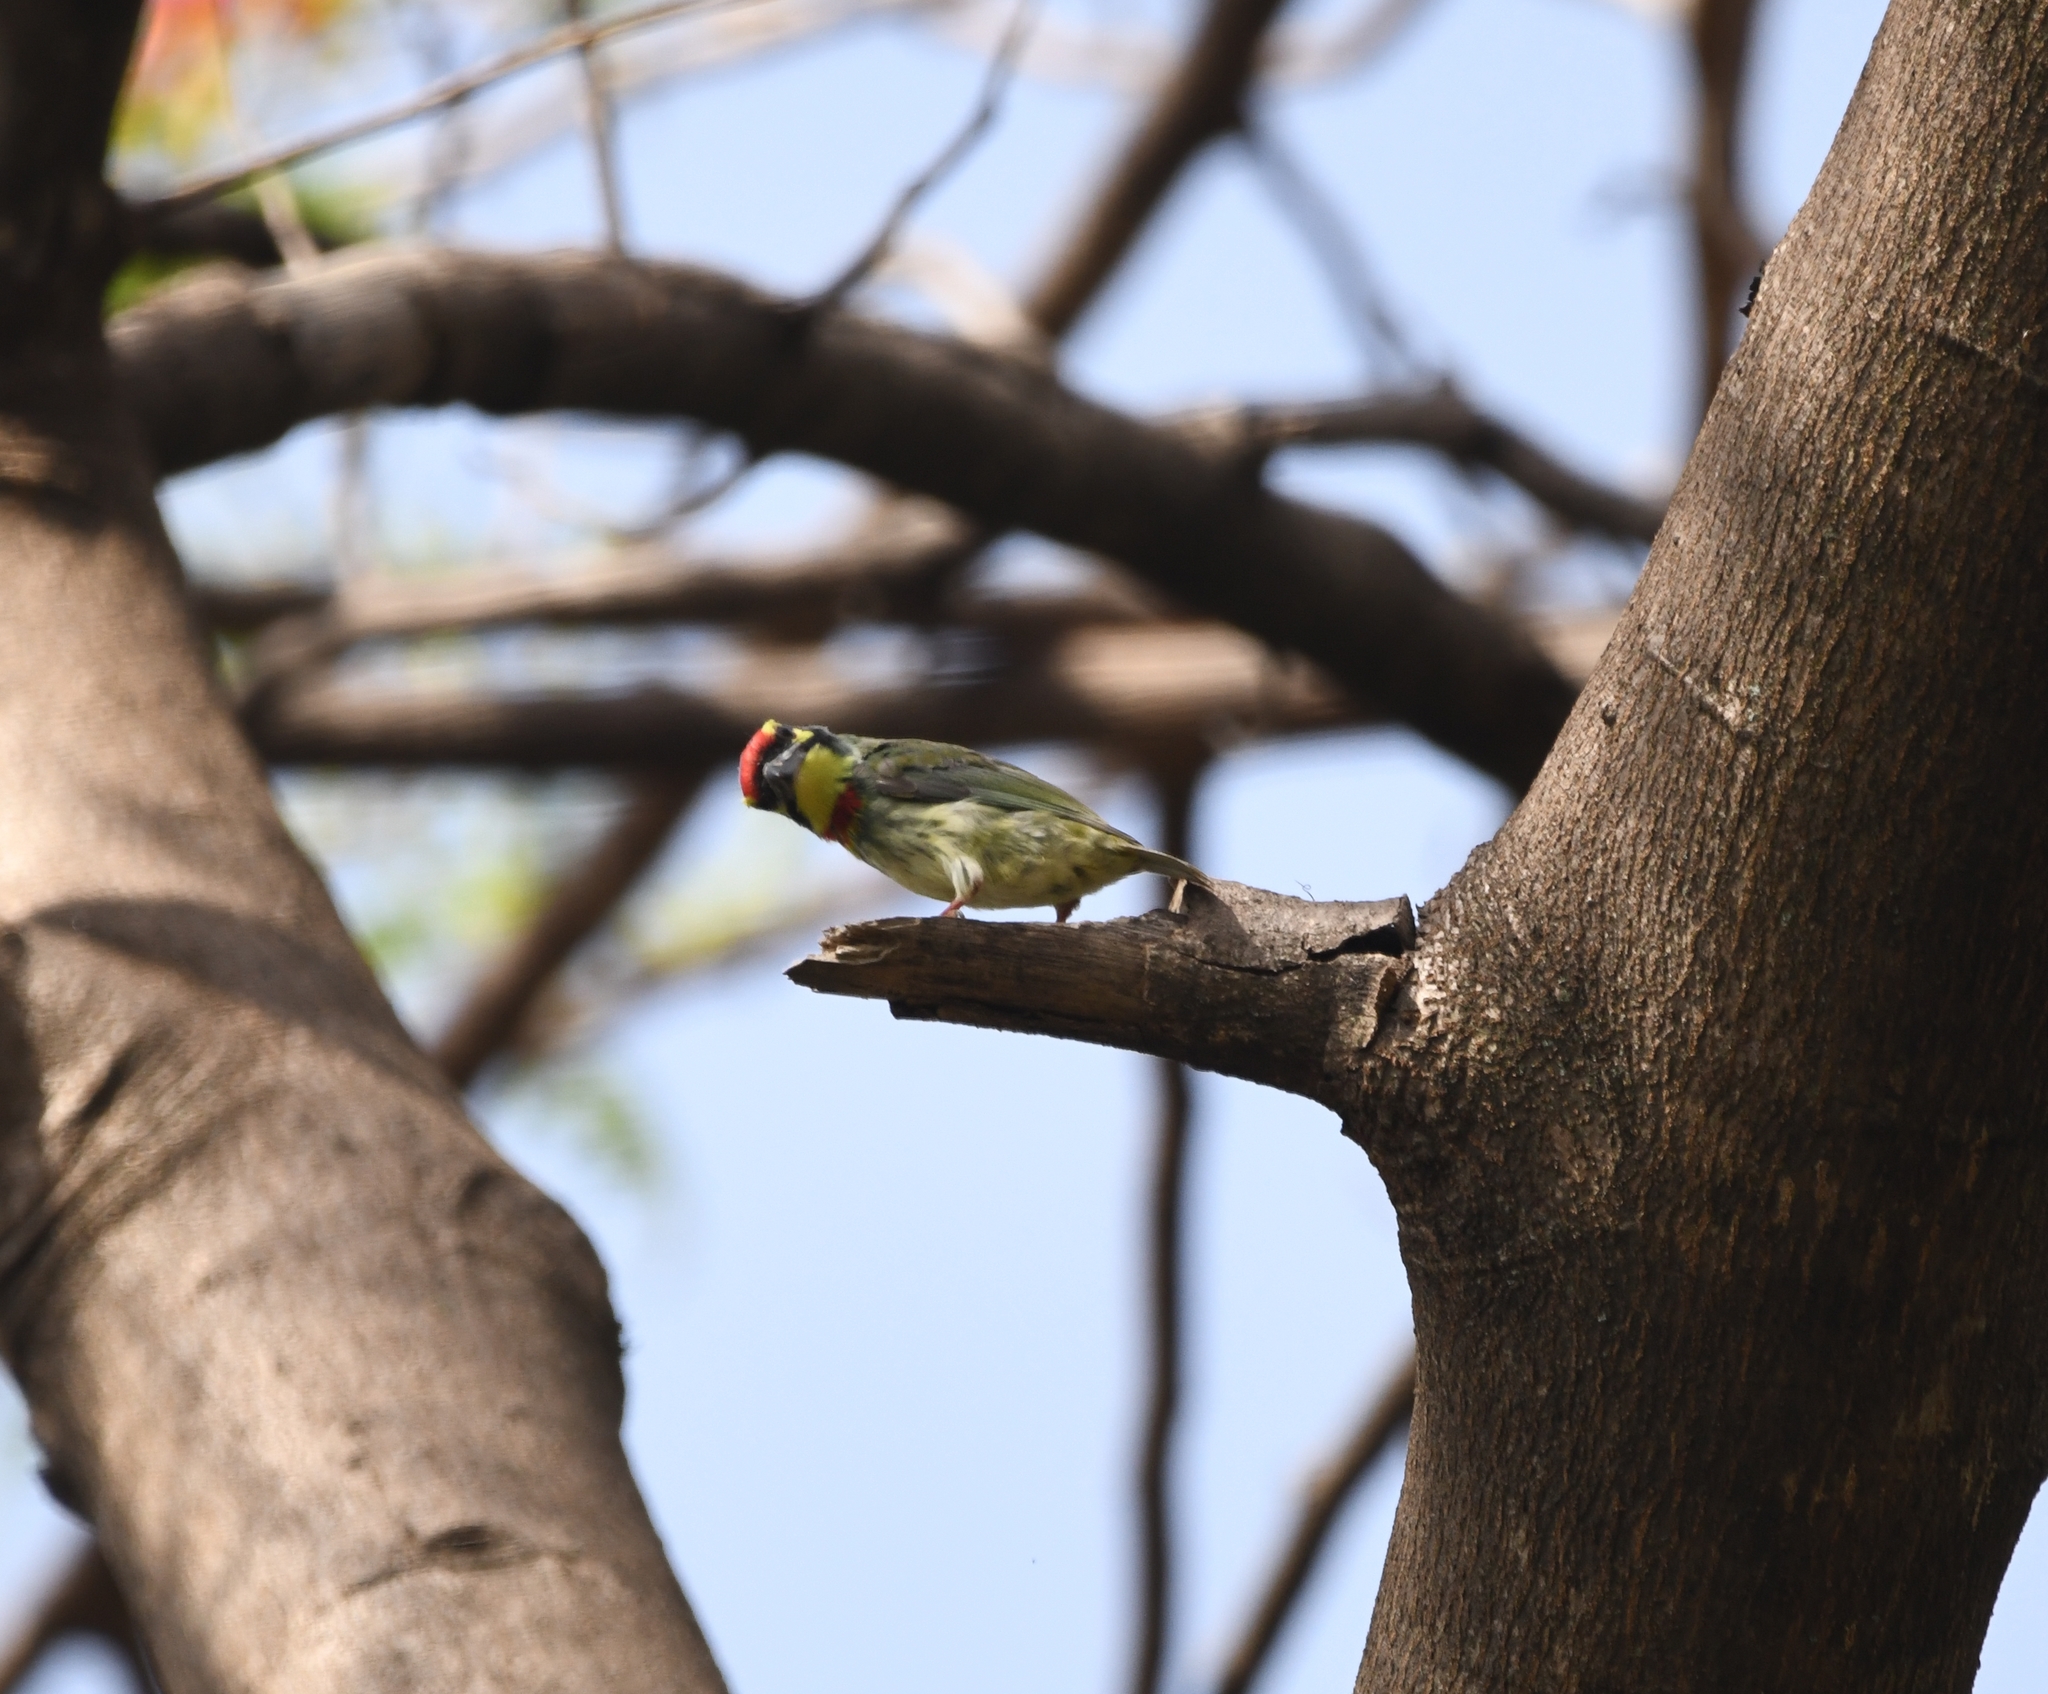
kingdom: Animalia
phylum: Chordata
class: Aves
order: Piciformes
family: Megalaimidae
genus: Psilopogon
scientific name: Psilopogon haemacephalus
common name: Coppersmith barbet
